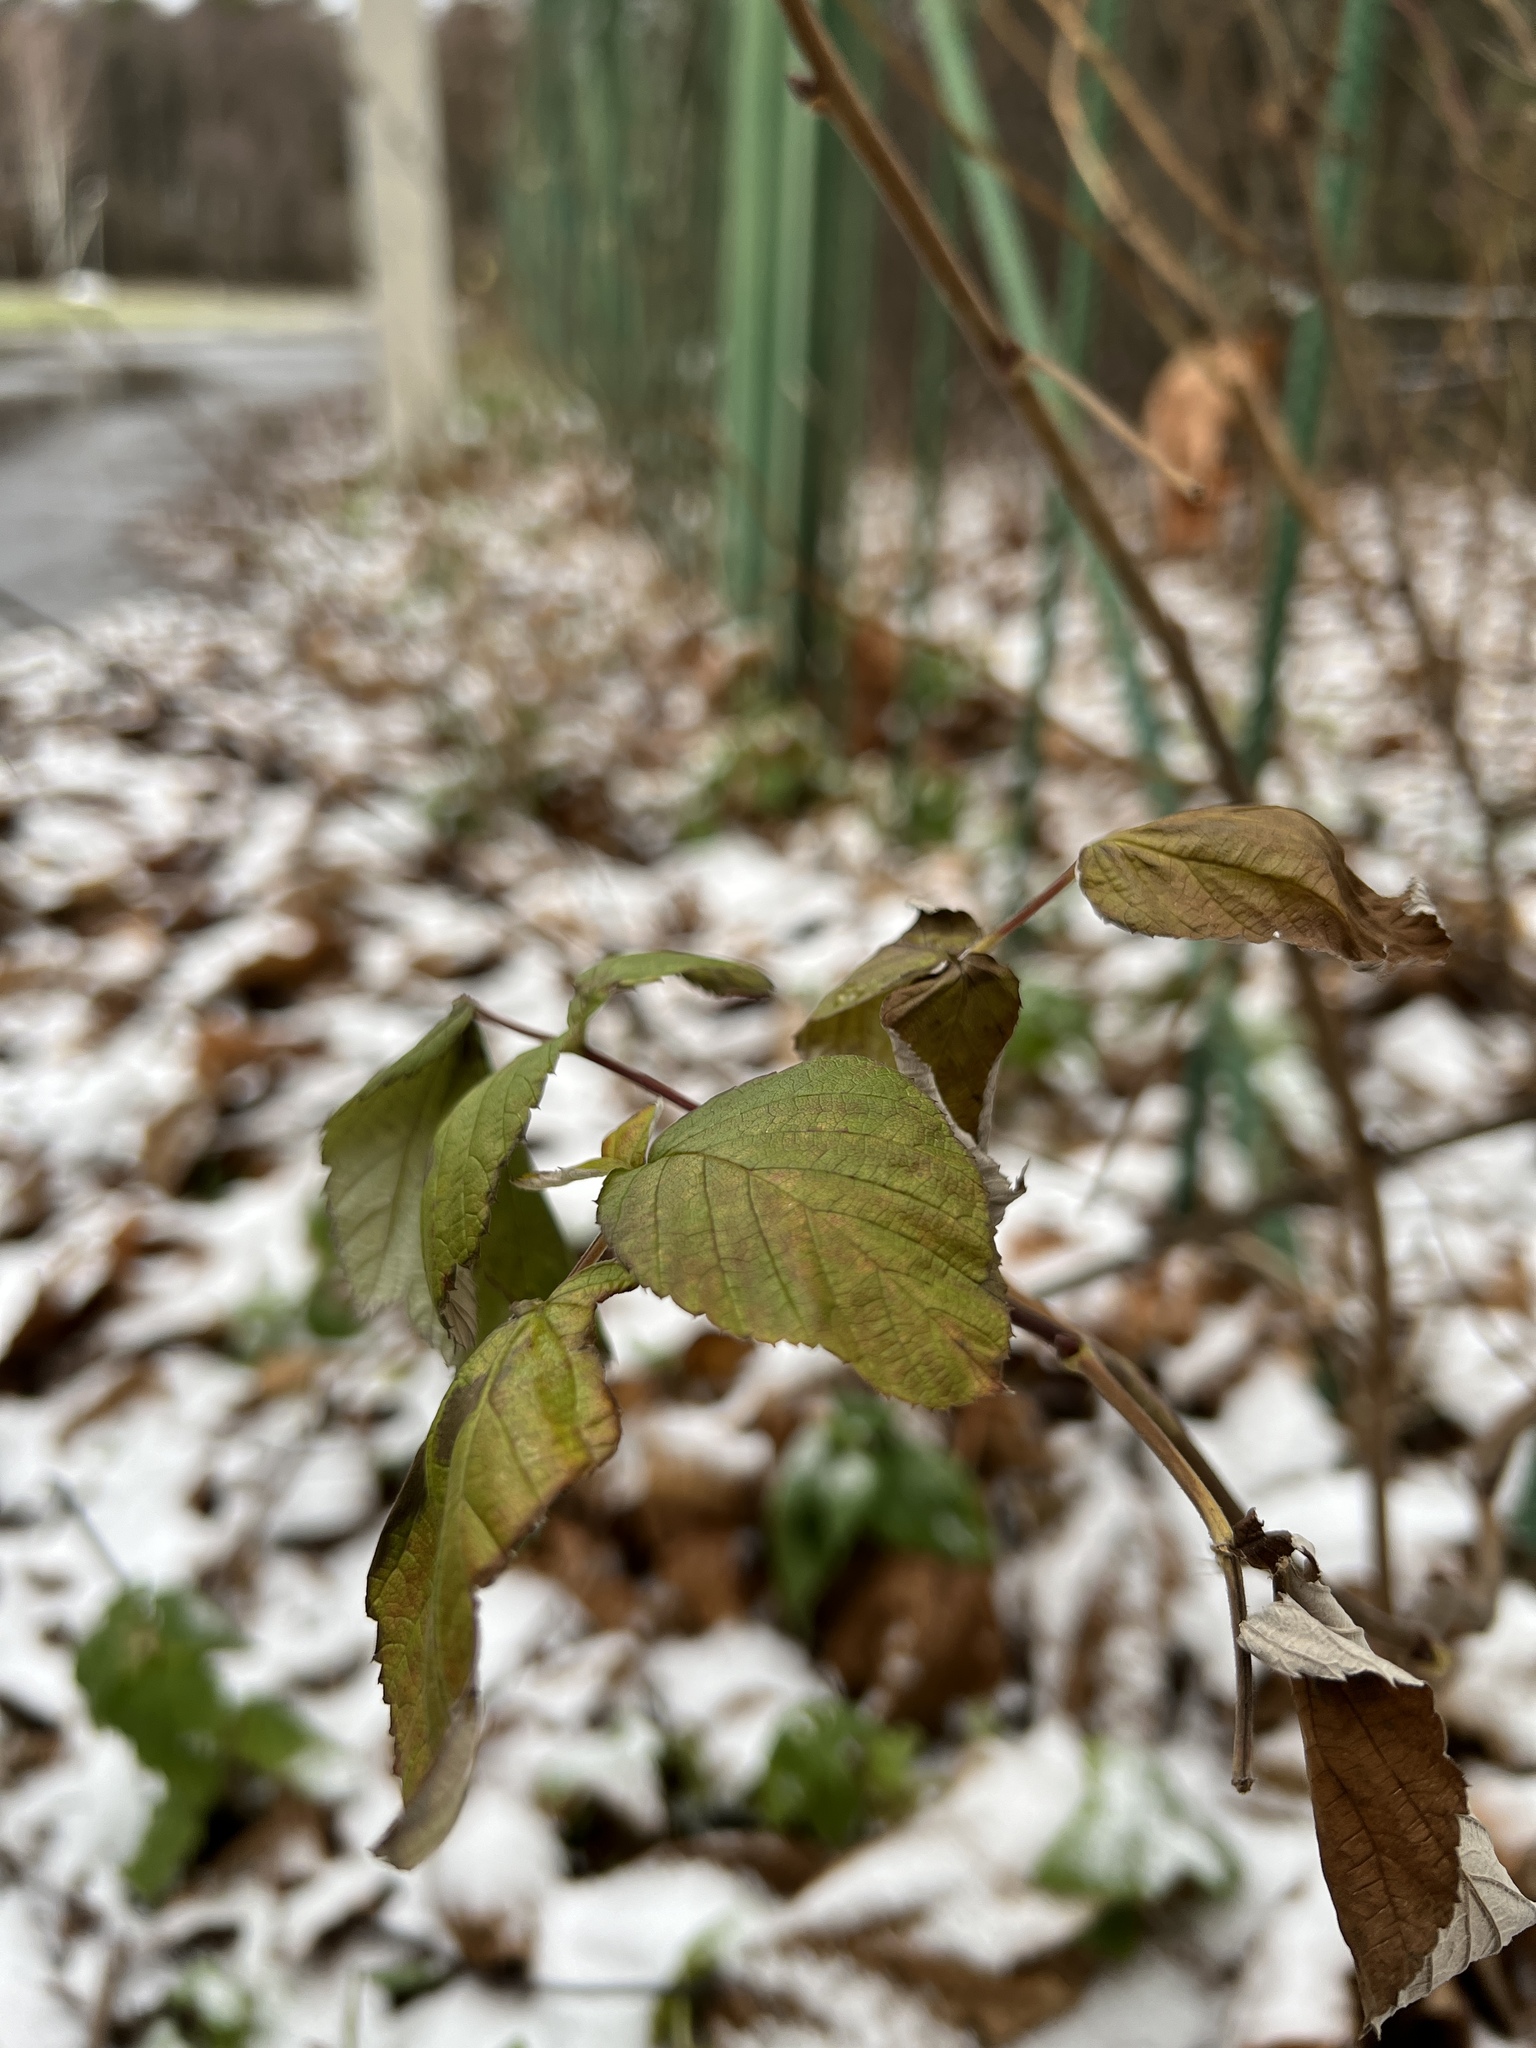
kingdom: Plantae
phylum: Tracheophyta
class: Magnoliopsida
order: Rosales
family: Rosaceae
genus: Rubus
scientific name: Rubus idaeus
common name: Raspberry
